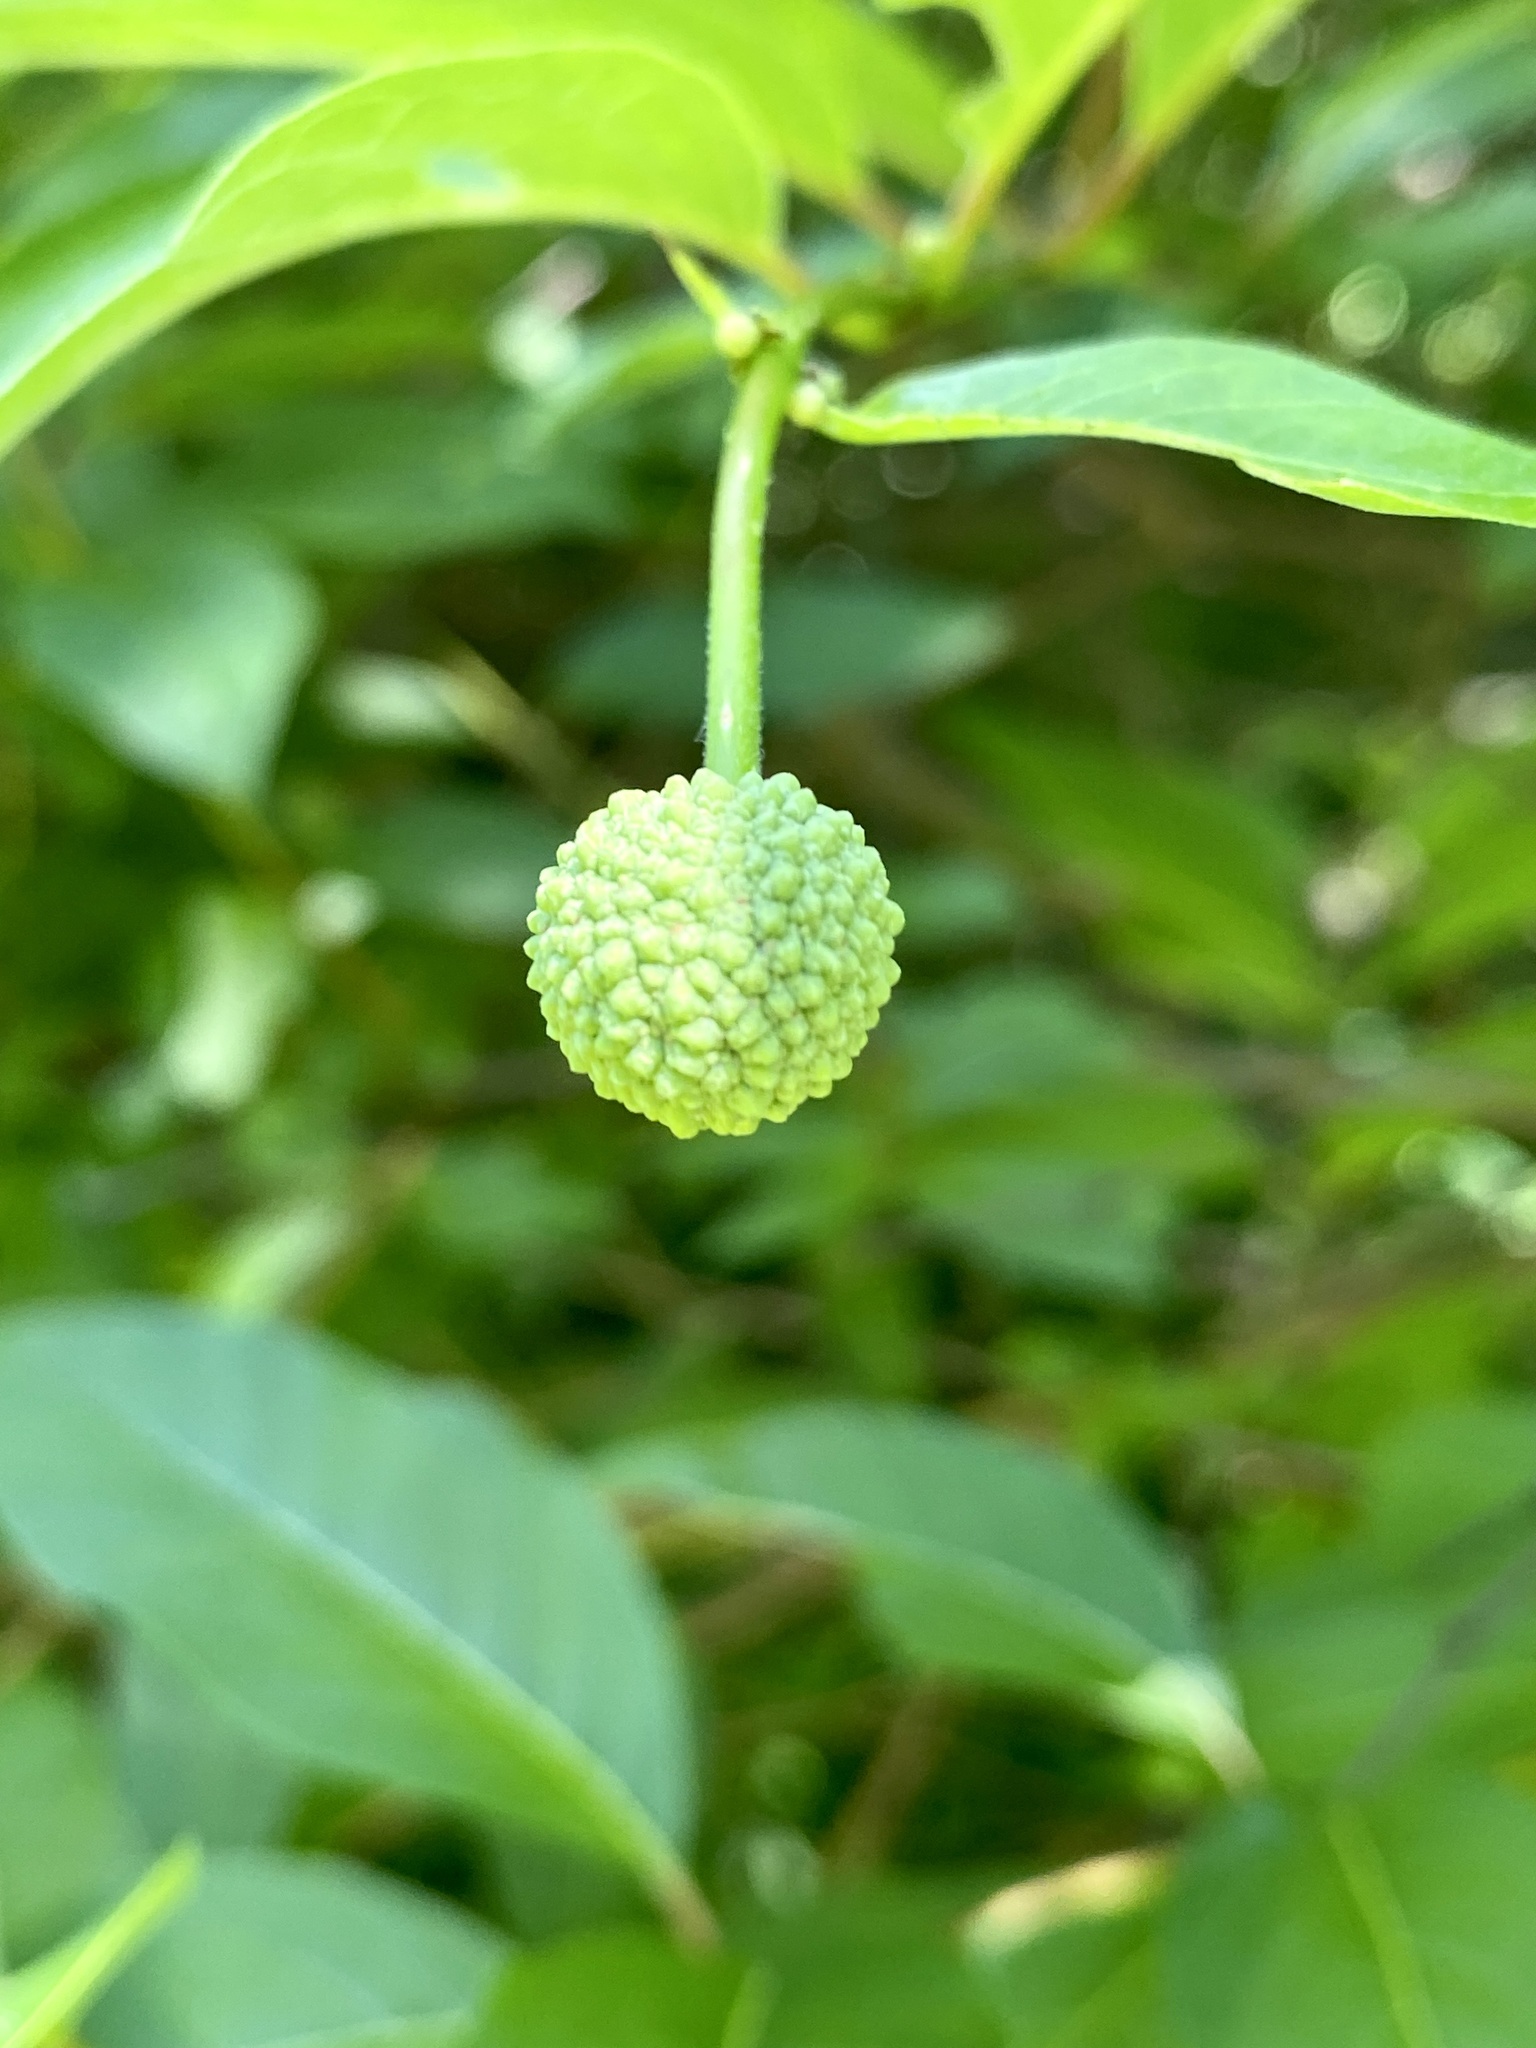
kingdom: Plantae
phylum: Tracheophyta
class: Magnoliopsida
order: Gentianales
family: Rubiaceae
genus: Cephalanthus
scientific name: Cephalanthus occidentalis
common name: Button-willow
